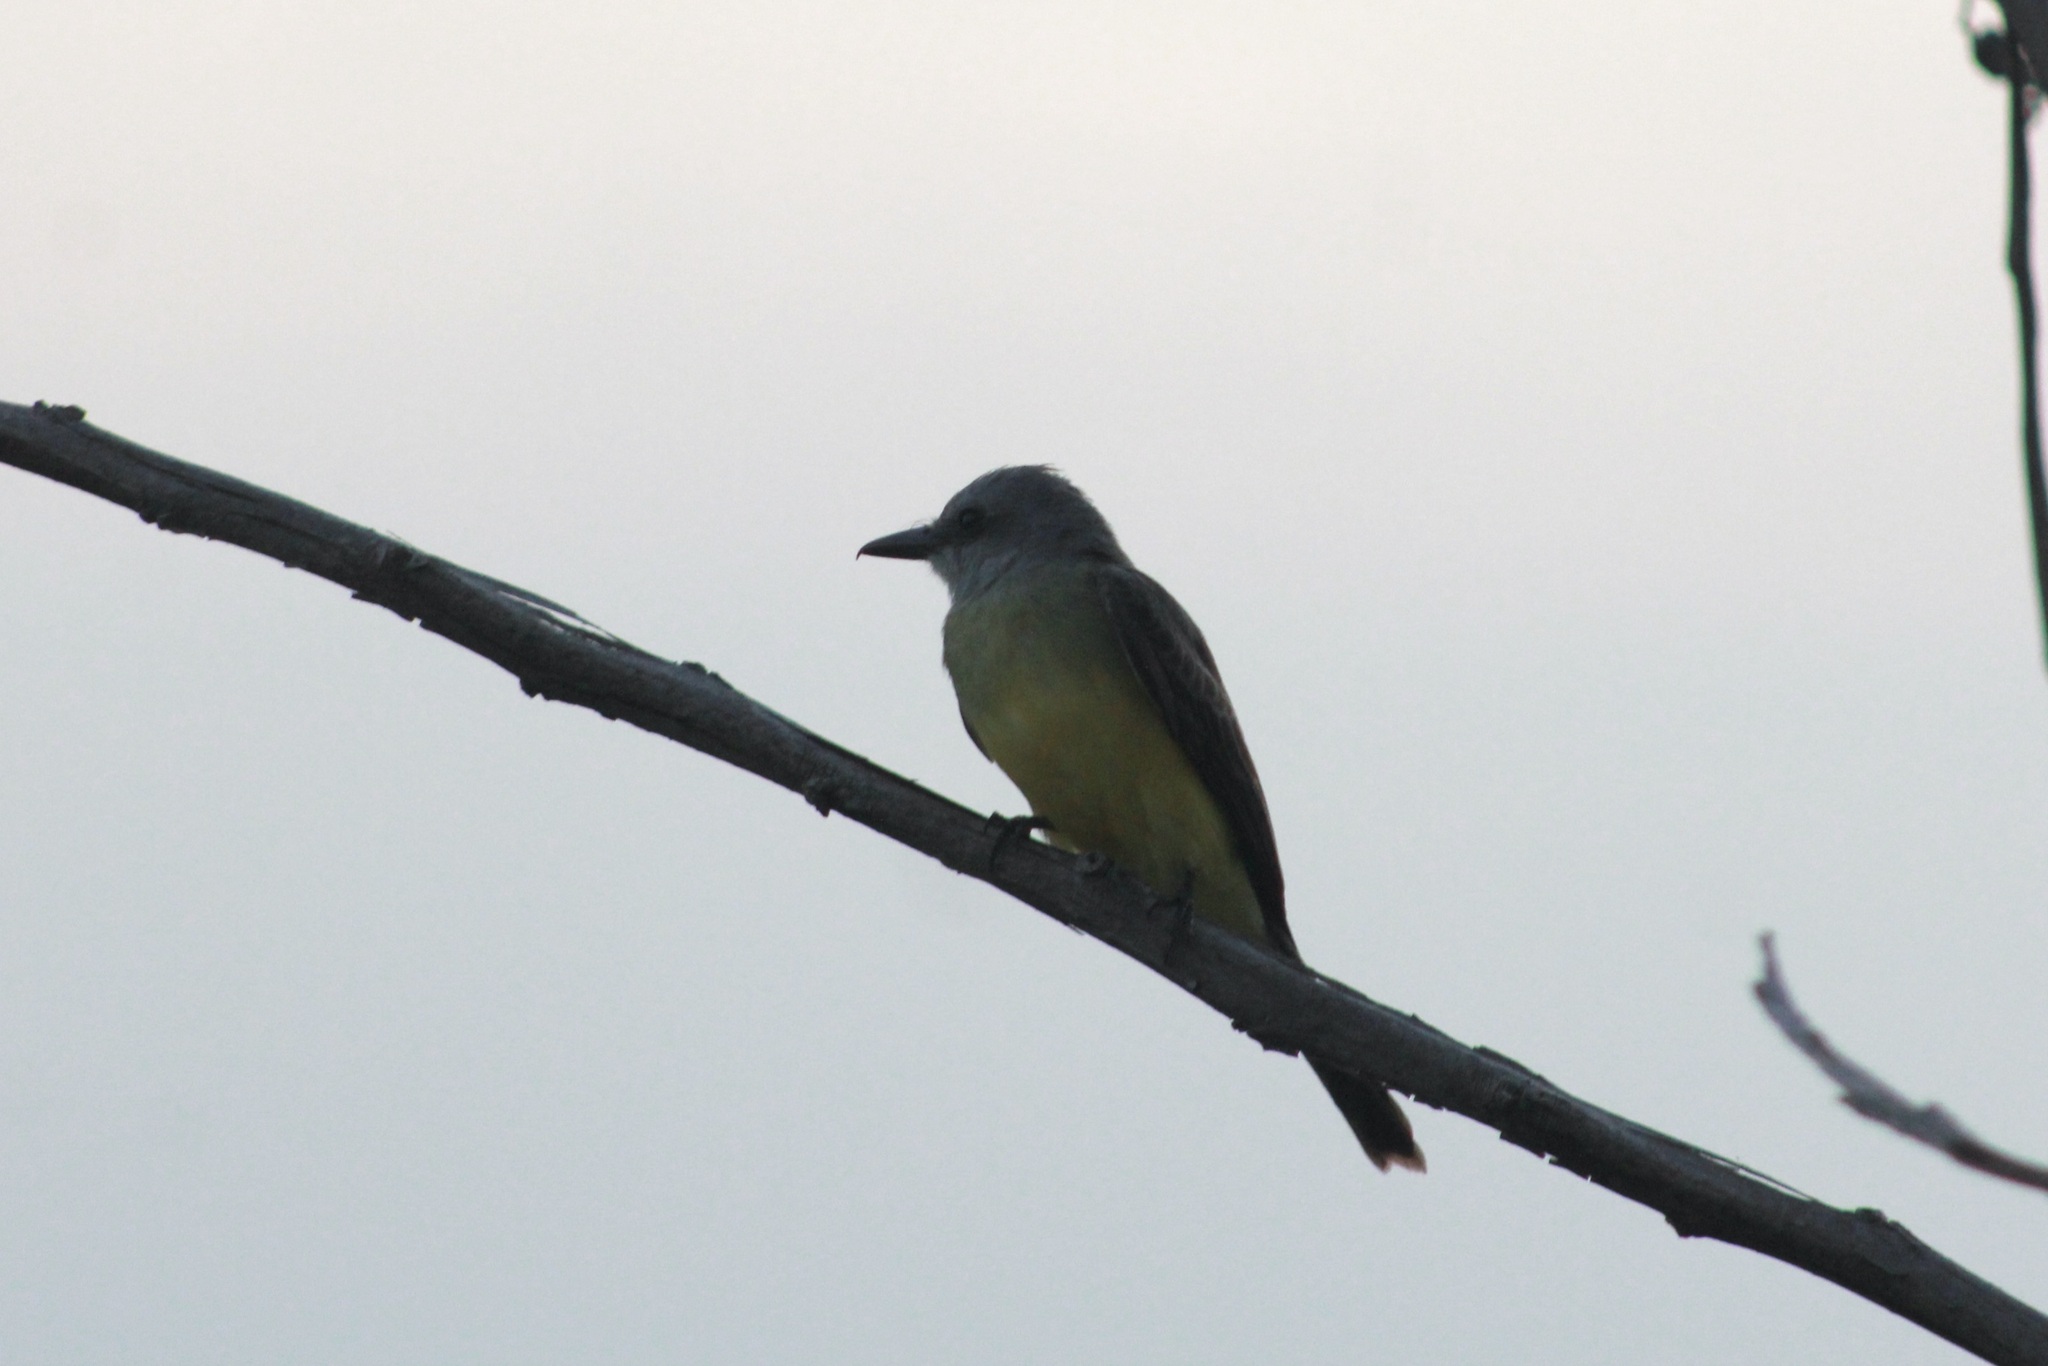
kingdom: Animalia
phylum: Chordata
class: Aves
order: Passeriformes
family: Tyrannidae
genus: Tyrannus
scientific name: Tyrannus melancholicus
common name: Tropical kingbird
